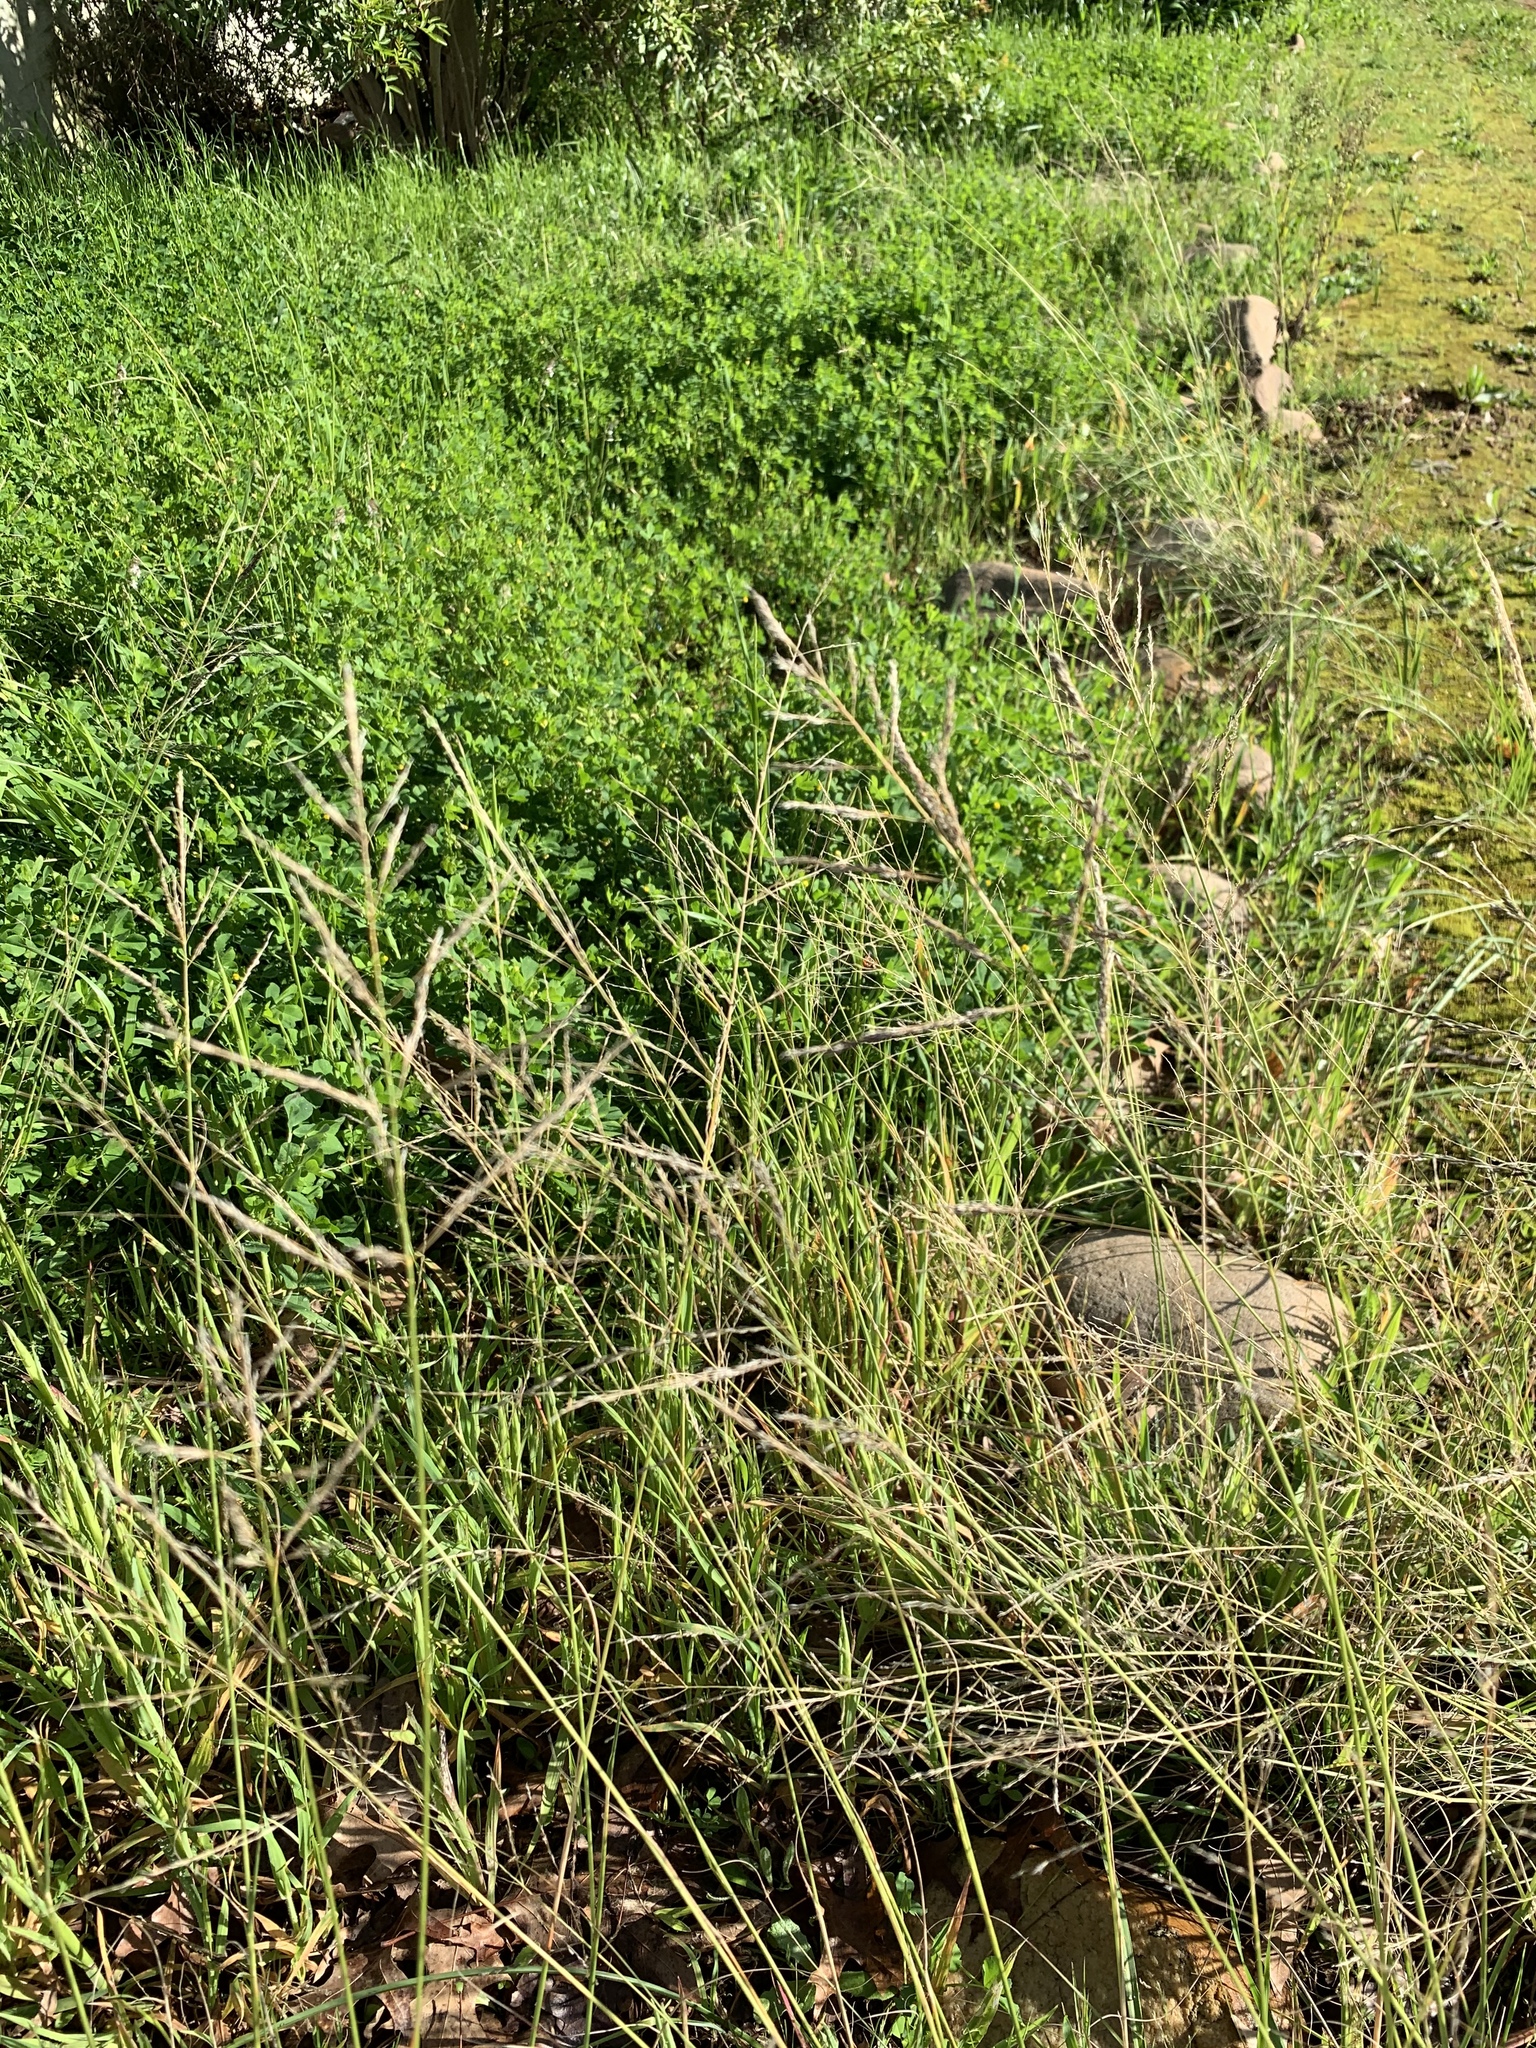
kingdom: Plantae
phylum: Tracheophyta
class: Liliopsida
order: Poales
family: Poaceae
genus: Eragrostis
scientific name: Eragrostis curvula
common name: African love-grass
